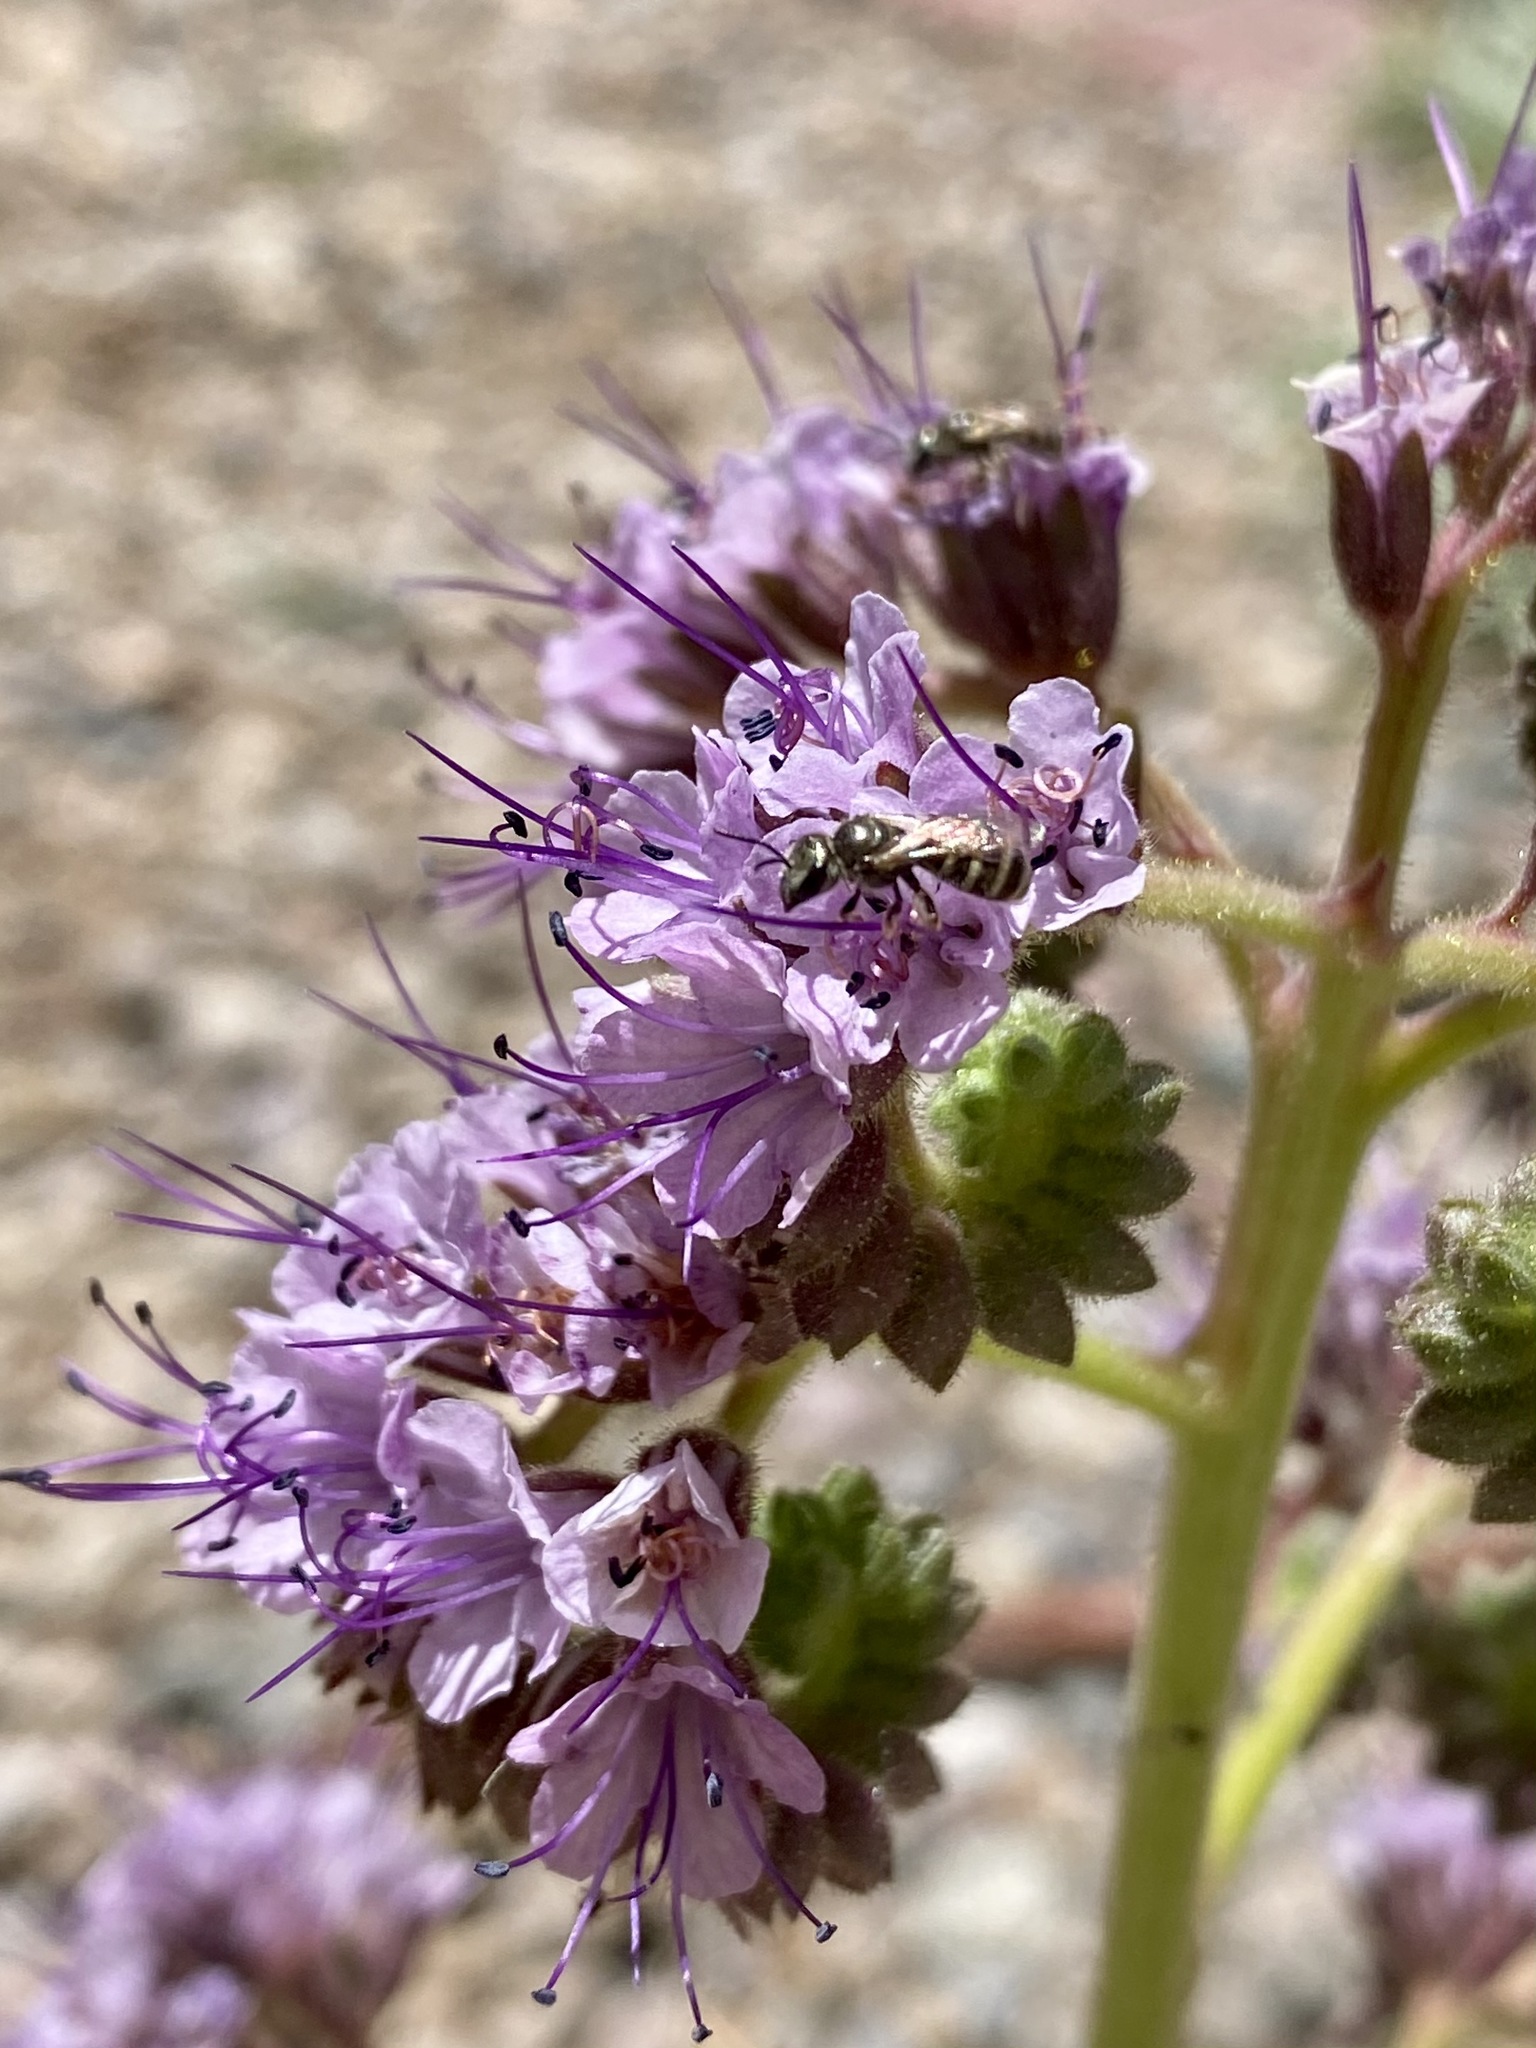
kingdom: Animalia
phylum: Arthropoda
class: Insecta
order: Hymenoptera
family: Halictidae
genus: Halictus
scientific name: Halictus tripartitus
